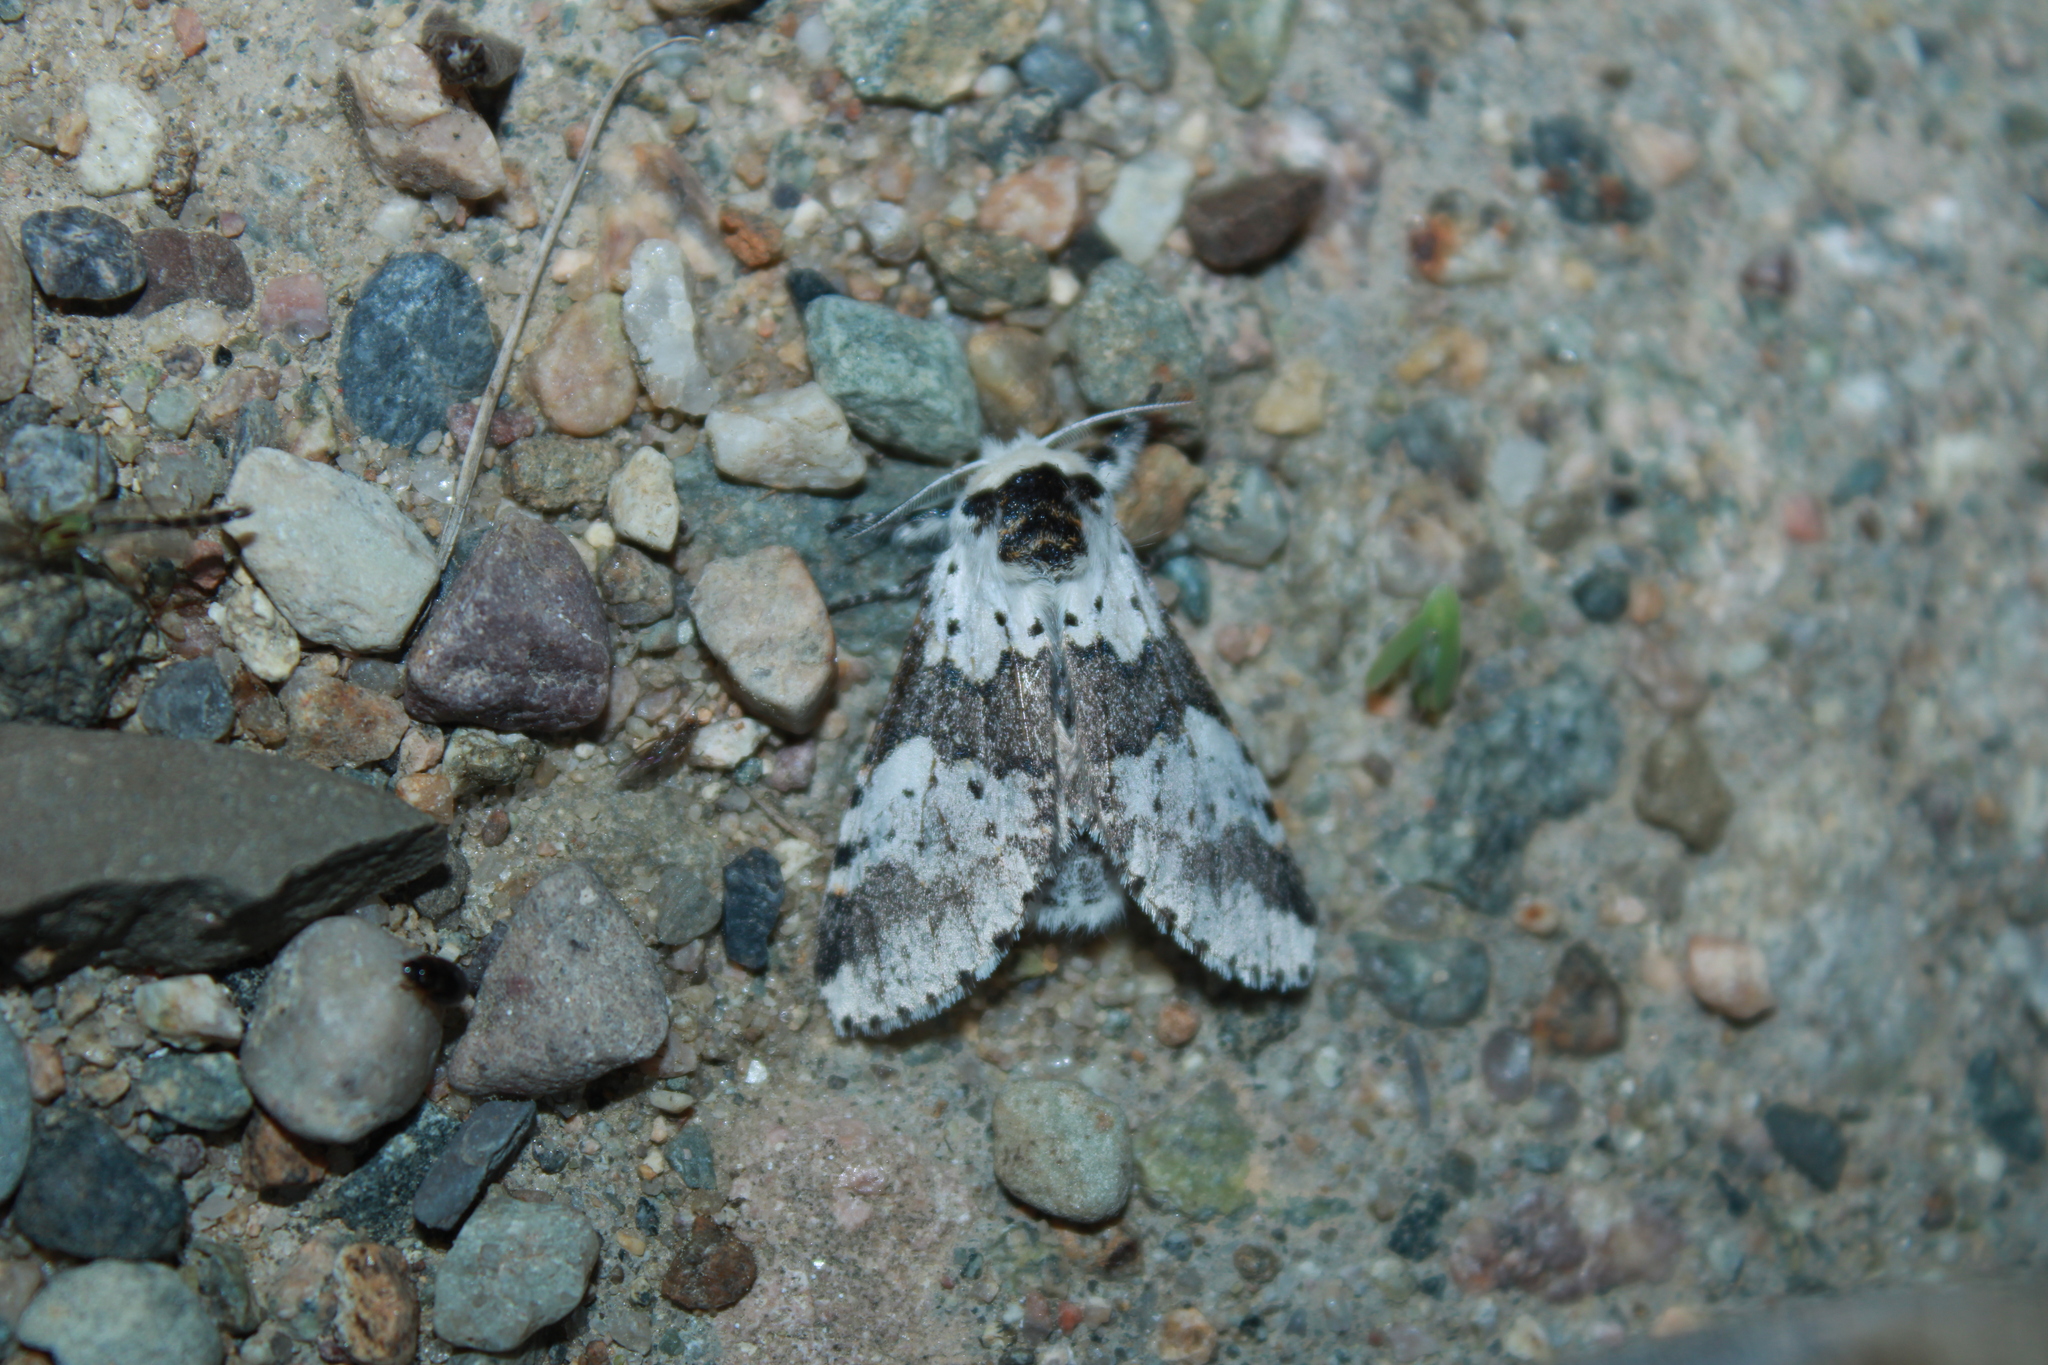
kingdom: Animalia
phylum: Arthropoda
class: Insecta
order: Lepidoptera
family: Notodontidae
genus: Furcula
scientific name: Furcula borealis
